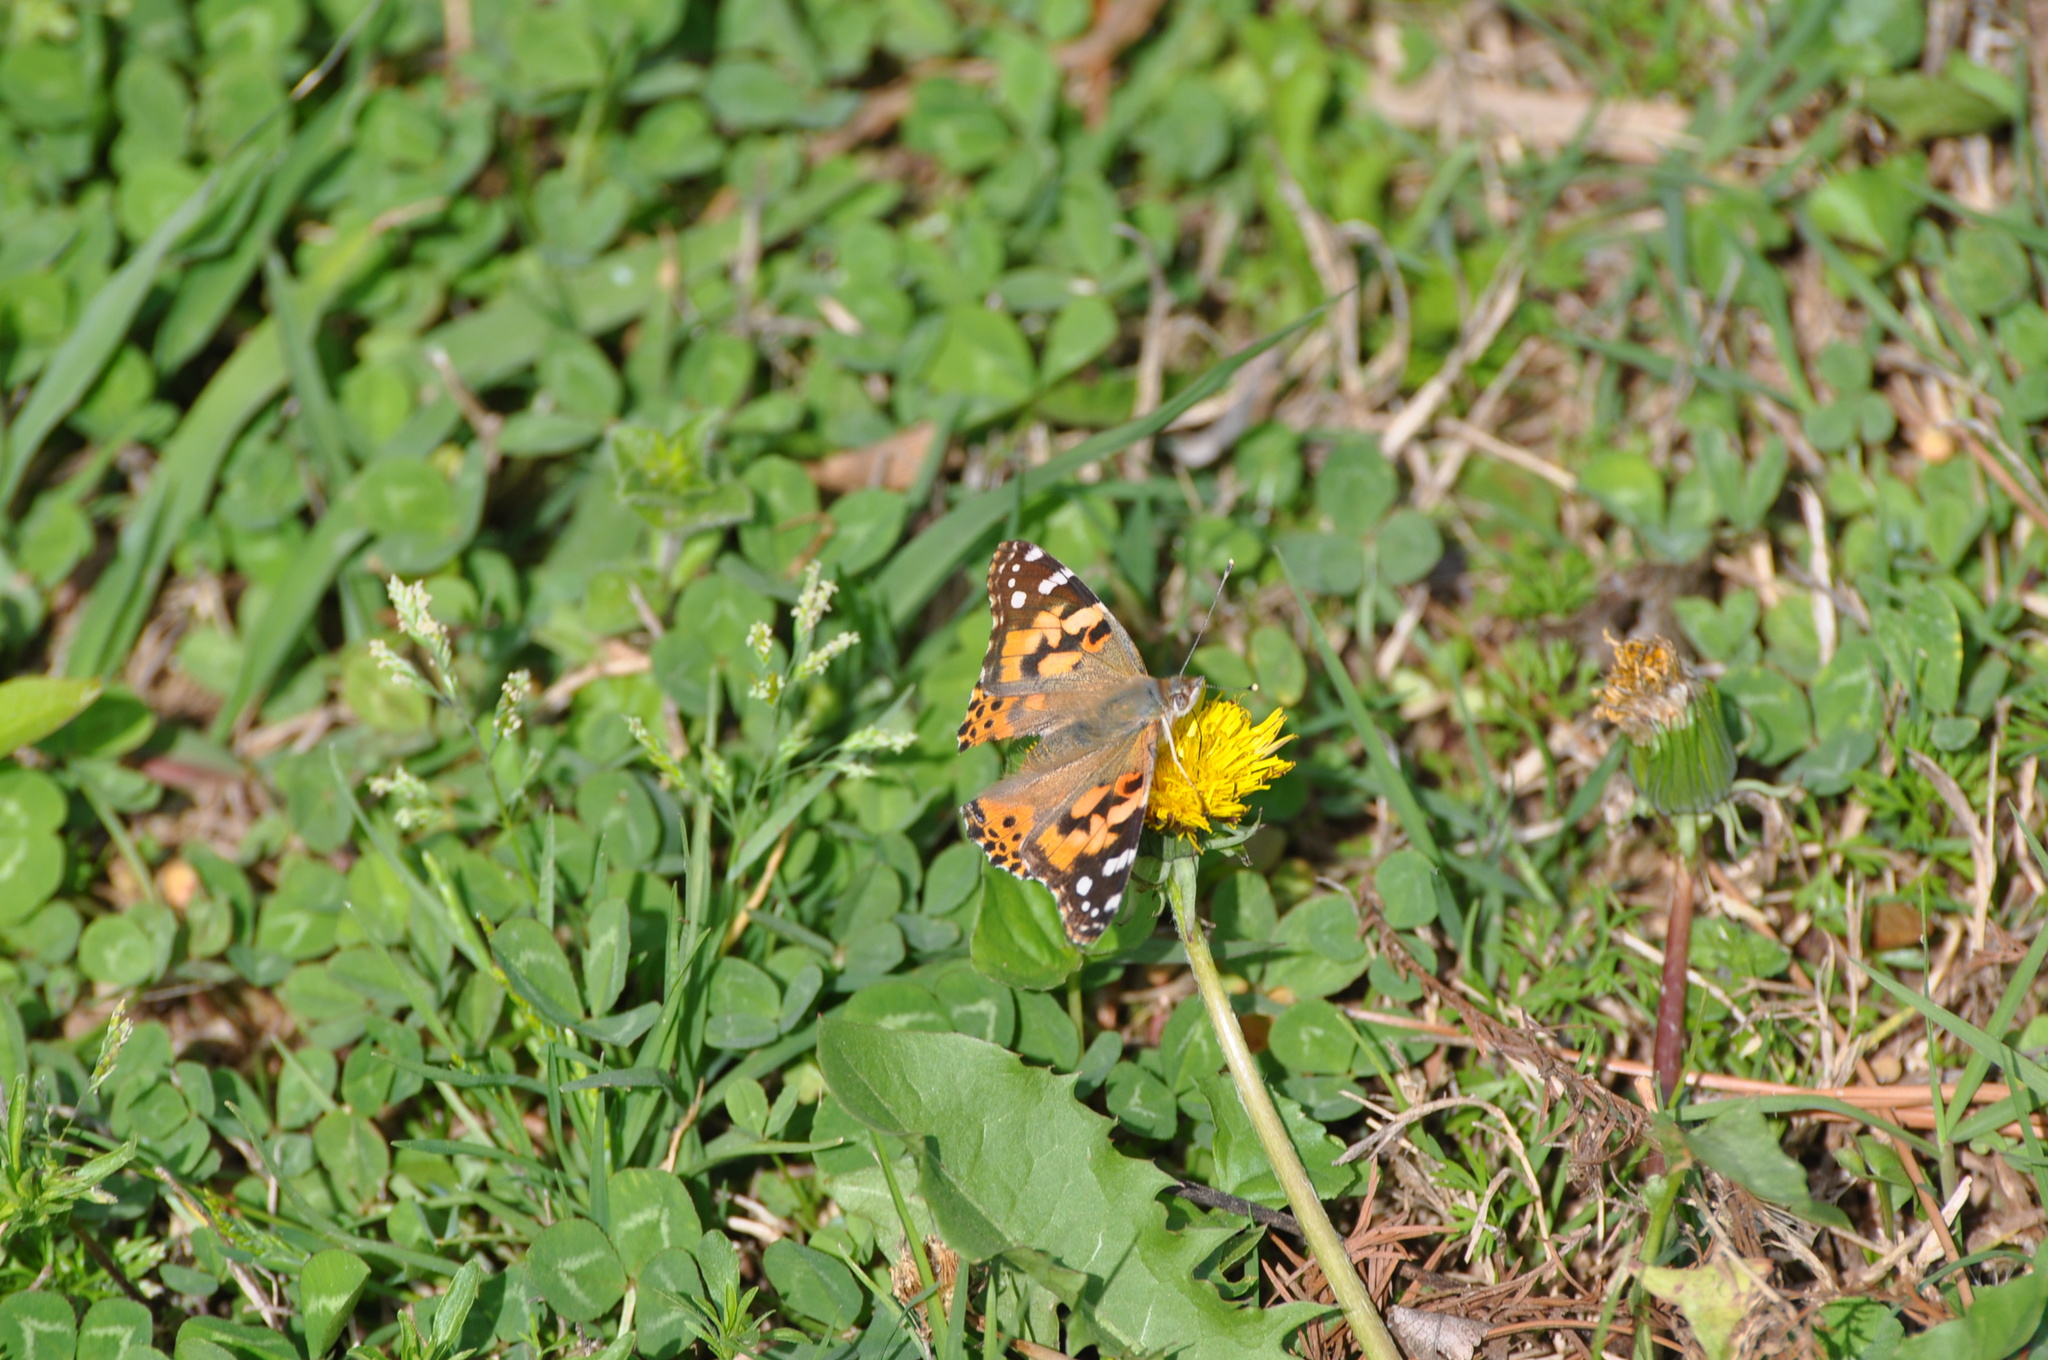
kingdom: Animalia
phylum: Arthropoda
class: Insecta
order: Lepidoptera
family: Nymphalidae
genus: Vanessa
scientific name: Vanessa cardui
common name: Painted lady
